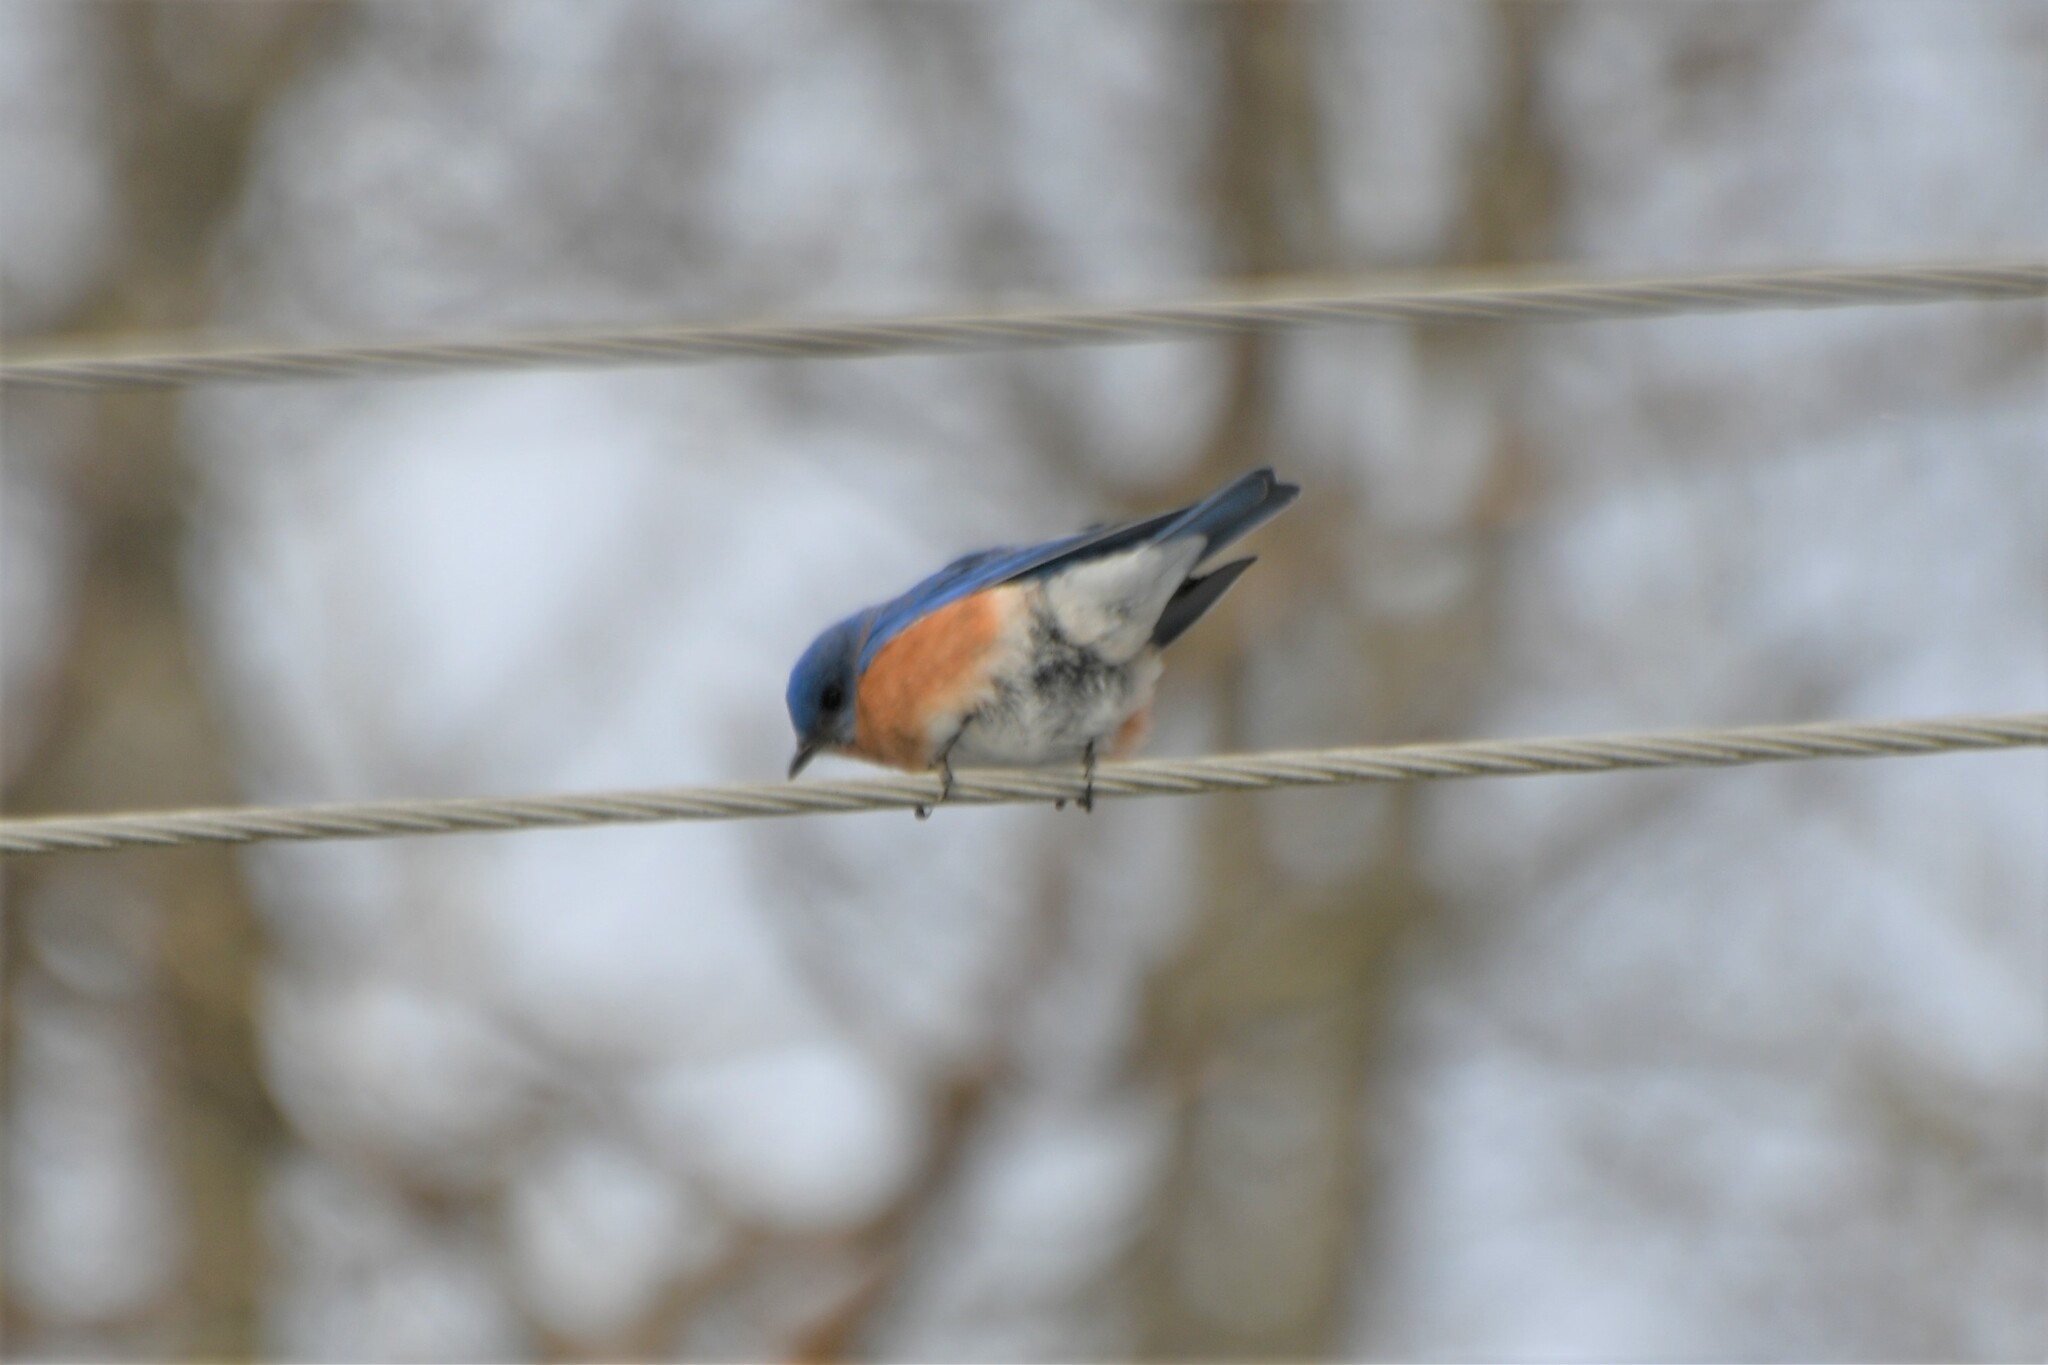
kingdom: Animalia
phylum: Chordata
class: Aves
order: Passeriformes
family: Turdidae
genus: Sialia
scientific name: Sialia sialis
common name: Eastern bluebird
